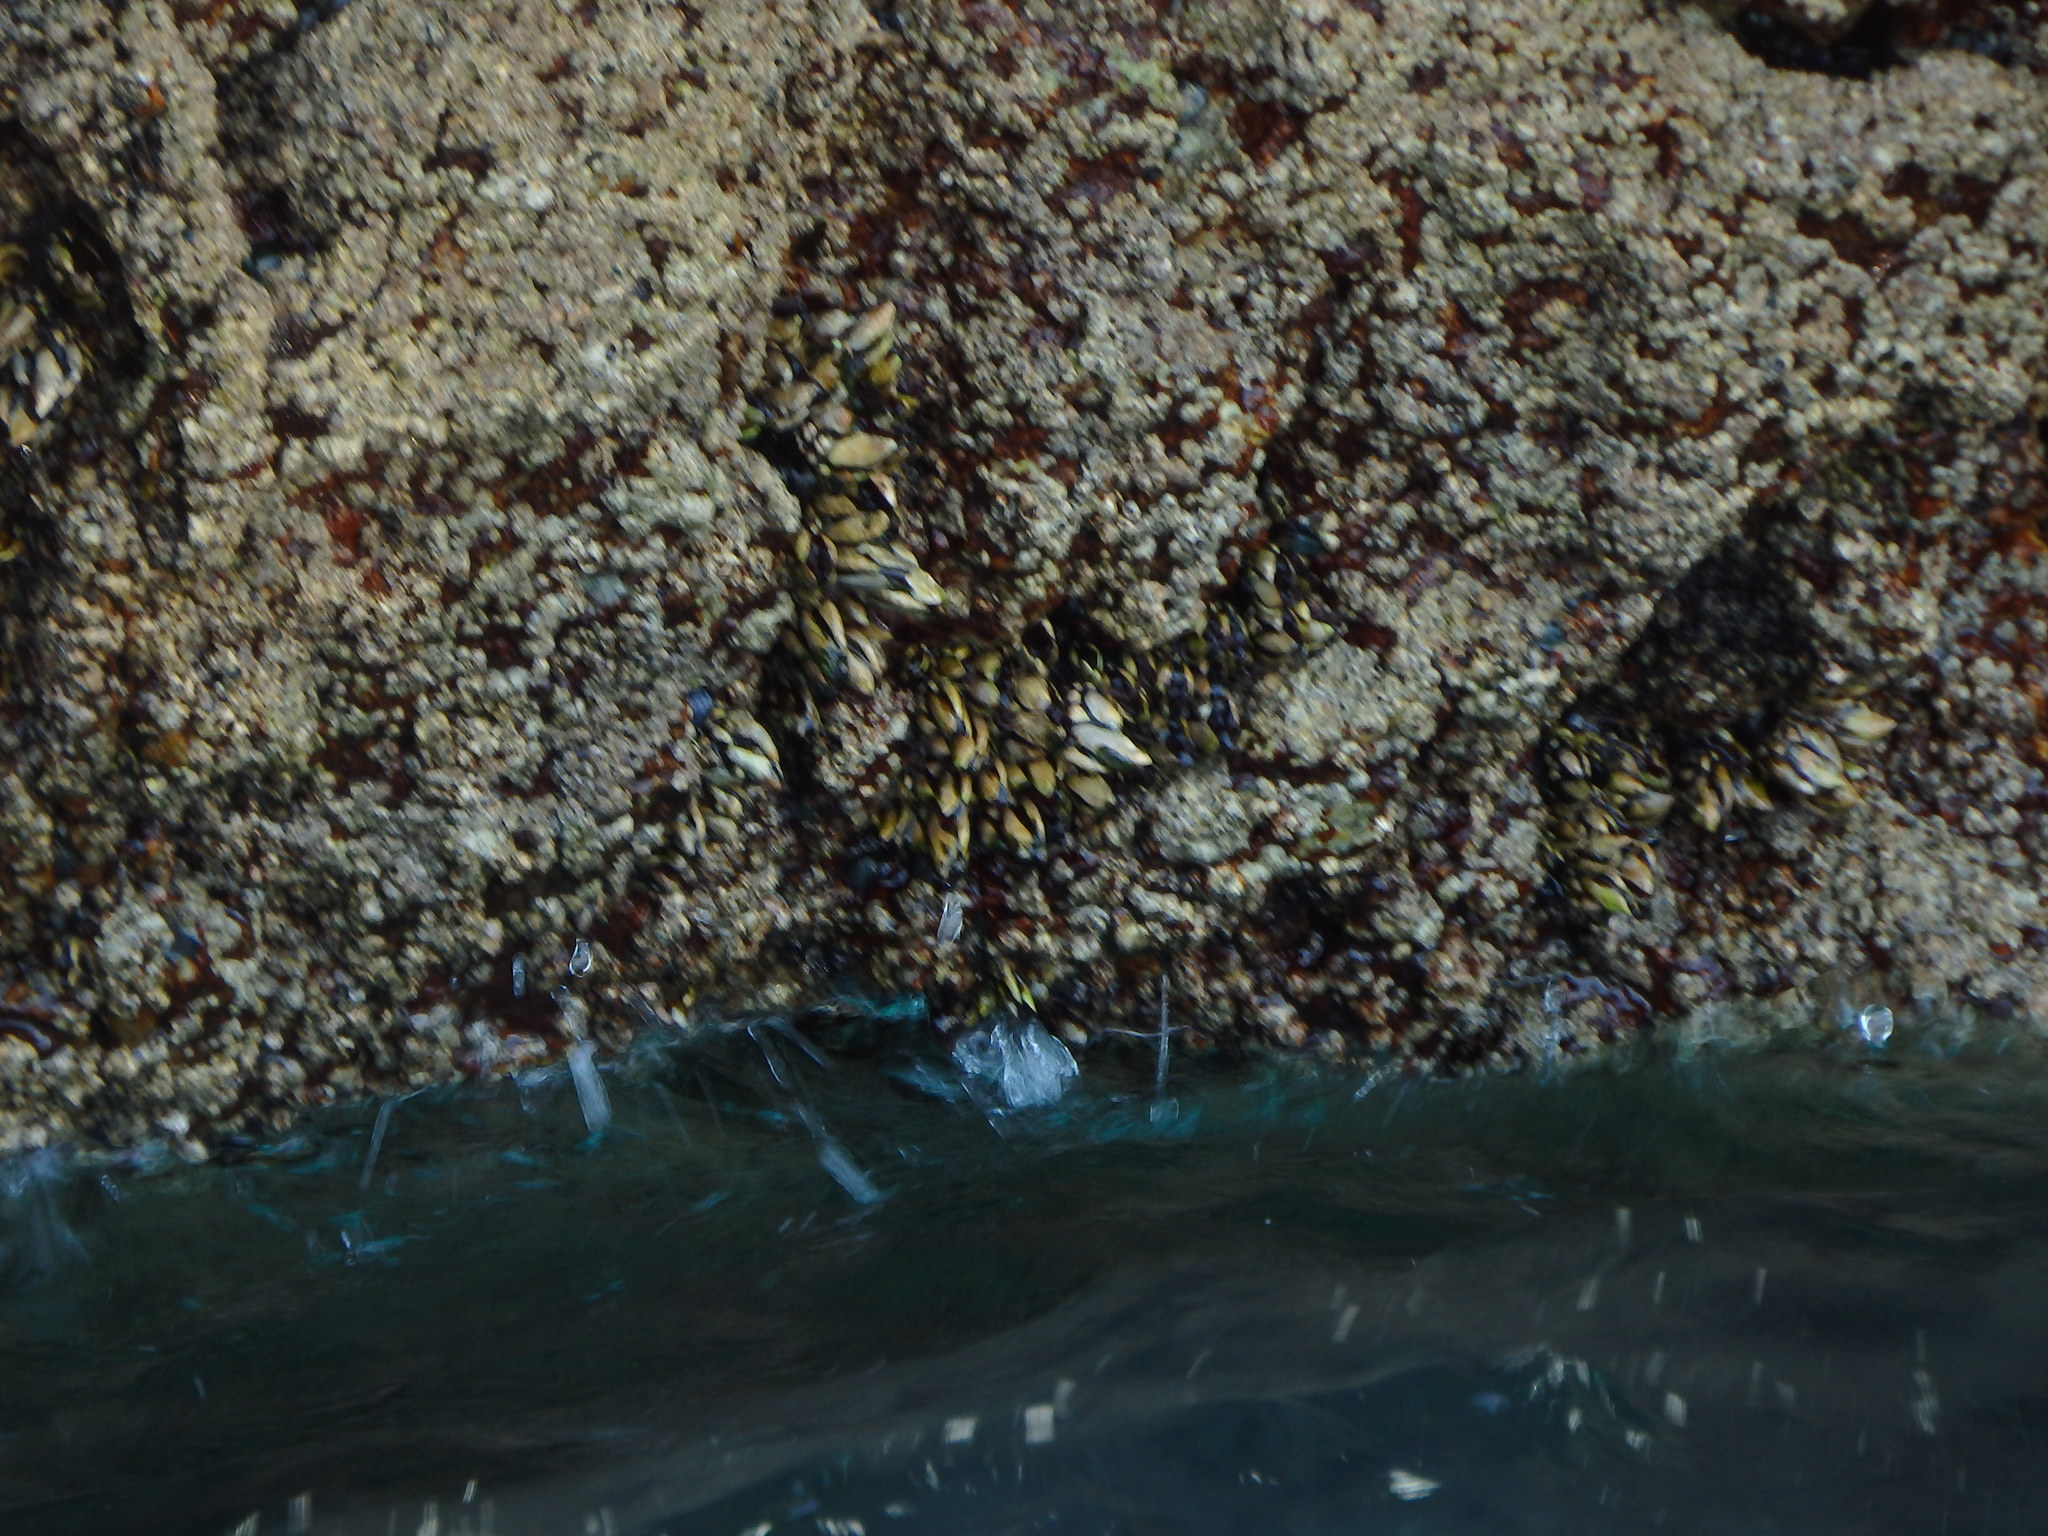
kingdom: Animalia
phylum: Arthropoda
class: Maxillopoda
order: Pedunculata
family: Pollicipedidae
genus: Pollicipes
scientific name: Pollicipes pollicipes
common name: Gooseneck barnacle
